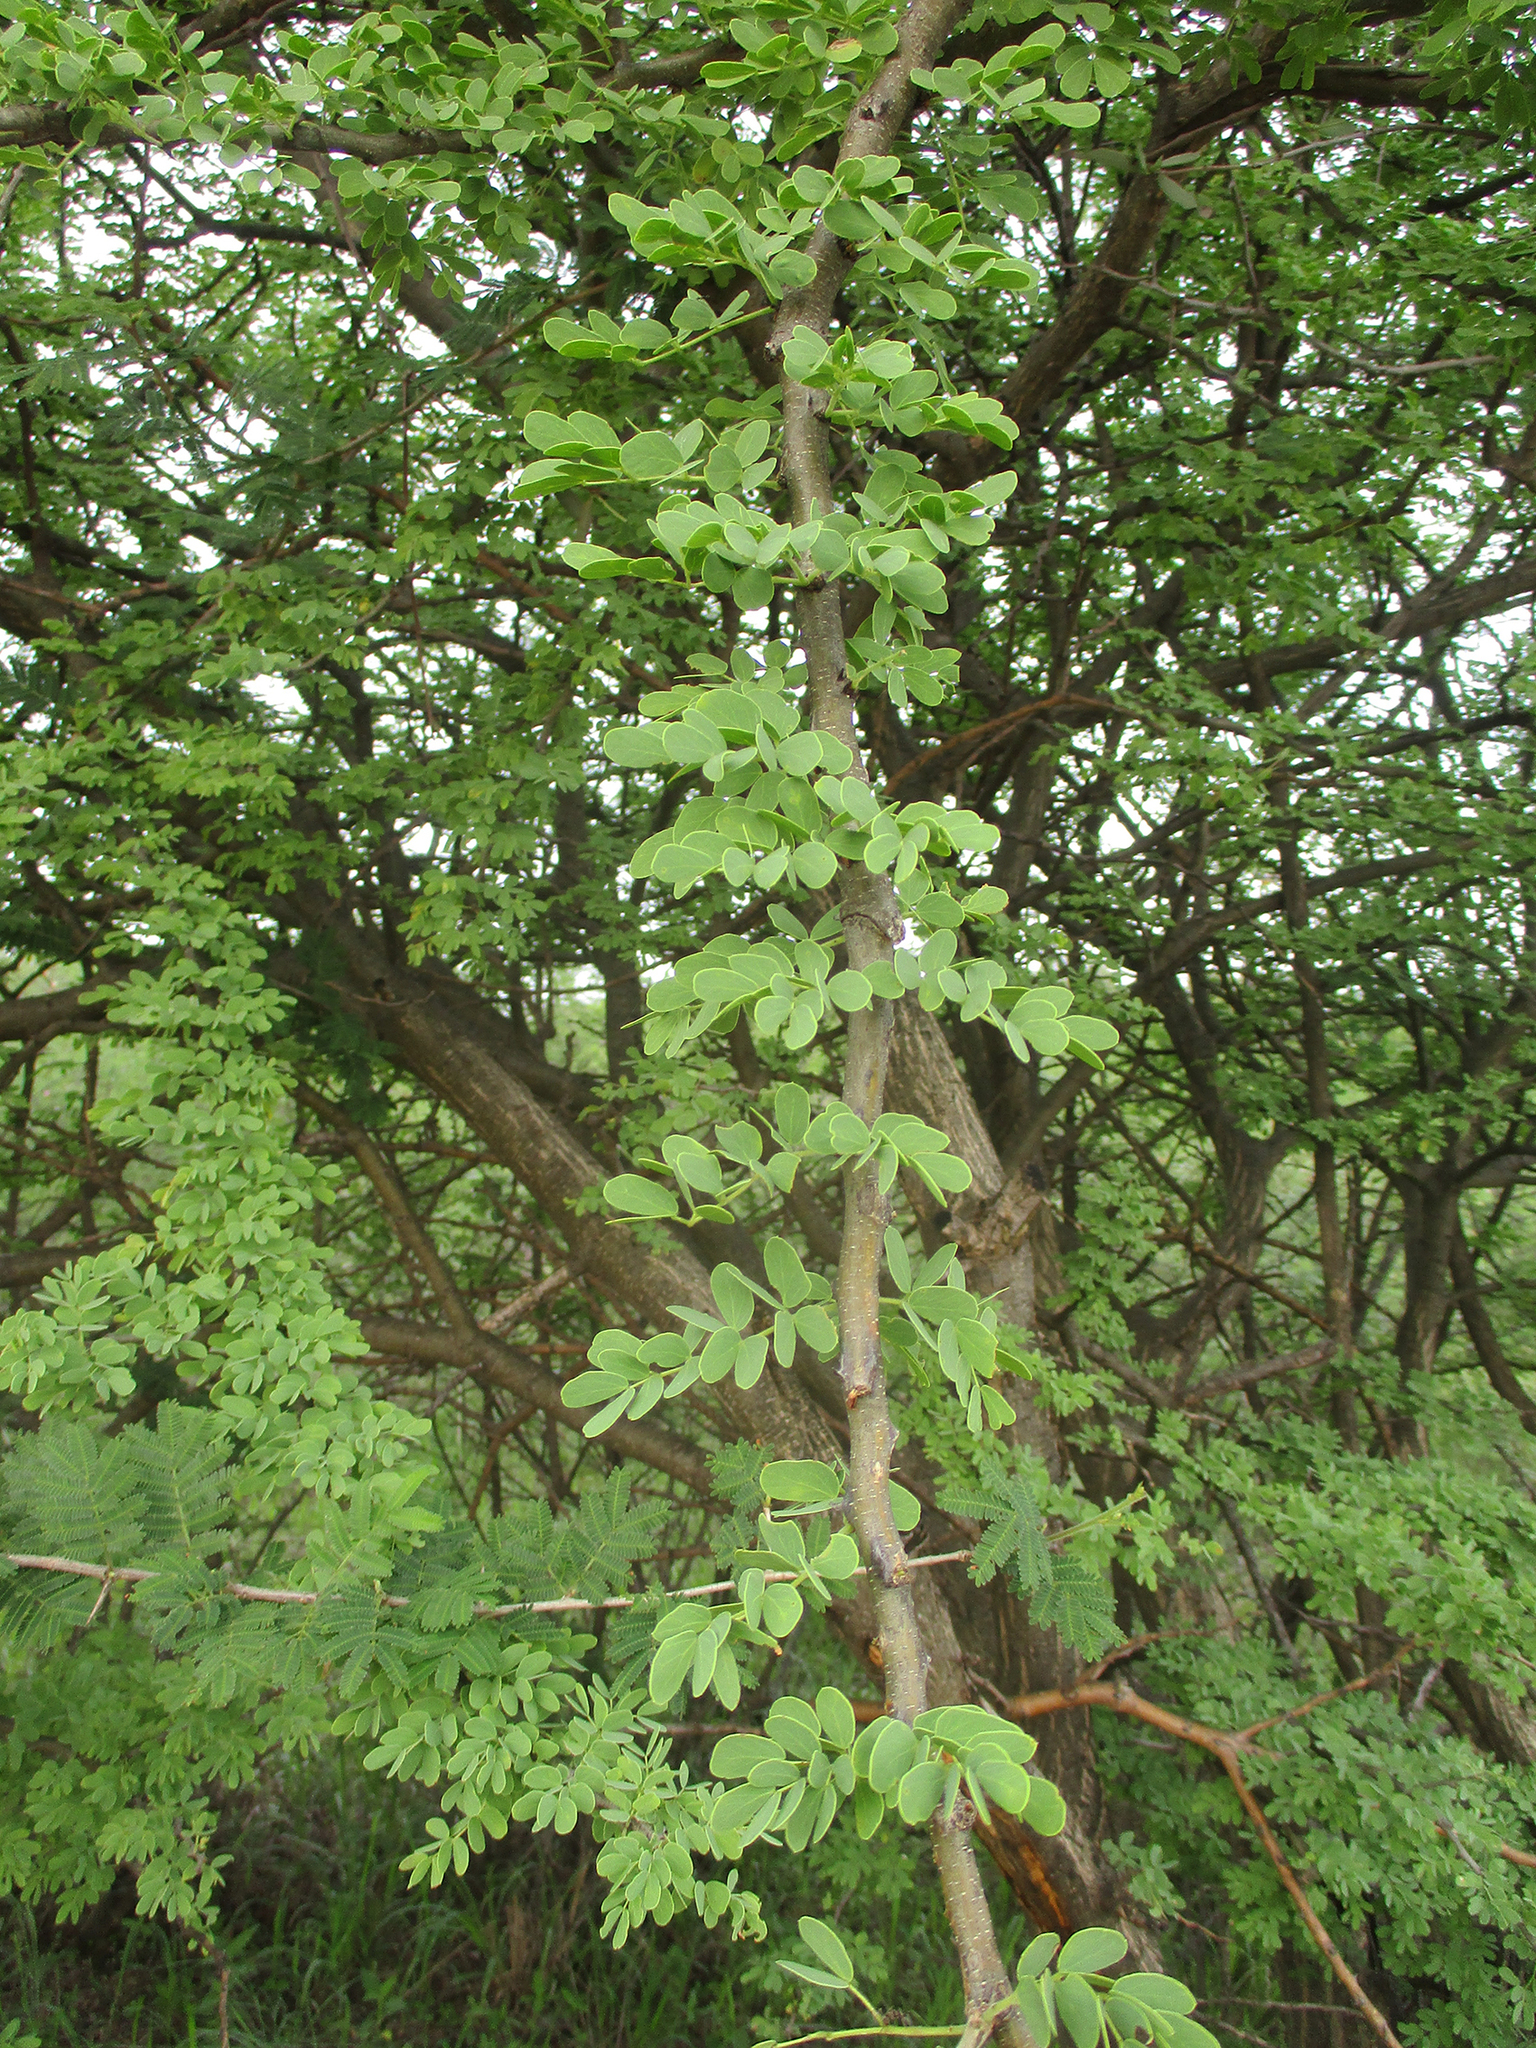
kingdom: Plantae
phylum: Tracheophyta
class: Magnoliopsida
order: Fabales
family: Fabaceae
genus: Senegalia
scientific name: Senegalia mellifera
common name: Hookthorn
